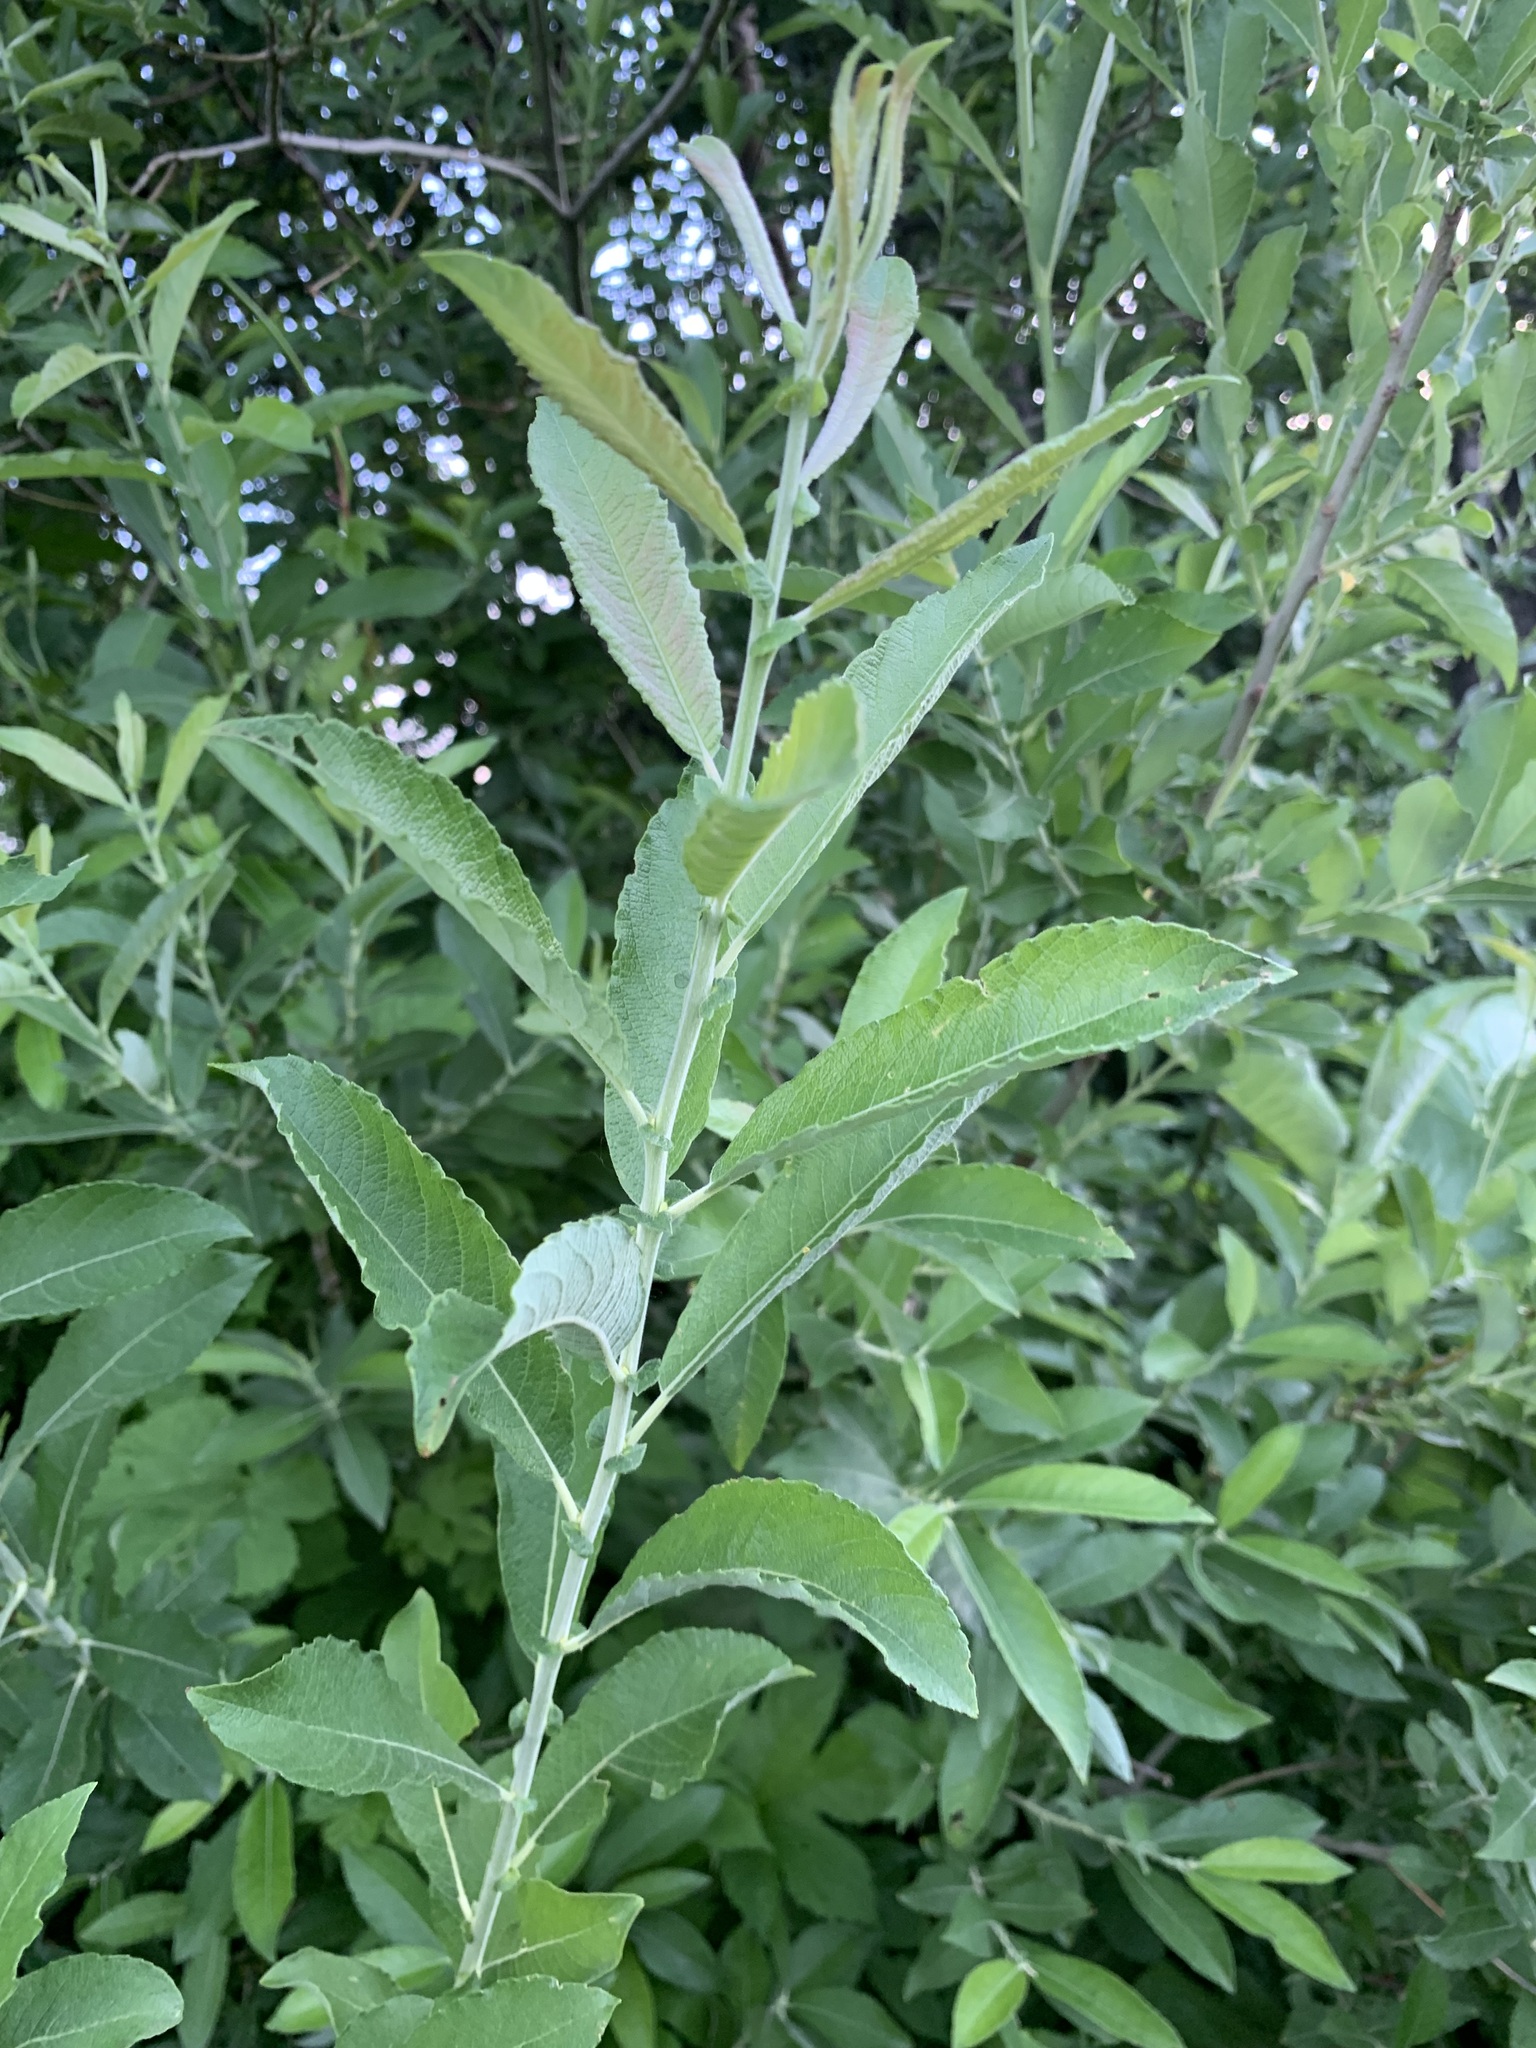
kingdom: Plantae
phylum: Tracheophyta
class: Magnoliopsida
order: Malpighiales
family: Salicaceae
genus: Salix
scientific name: Salix cinerea
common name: Common sallow
